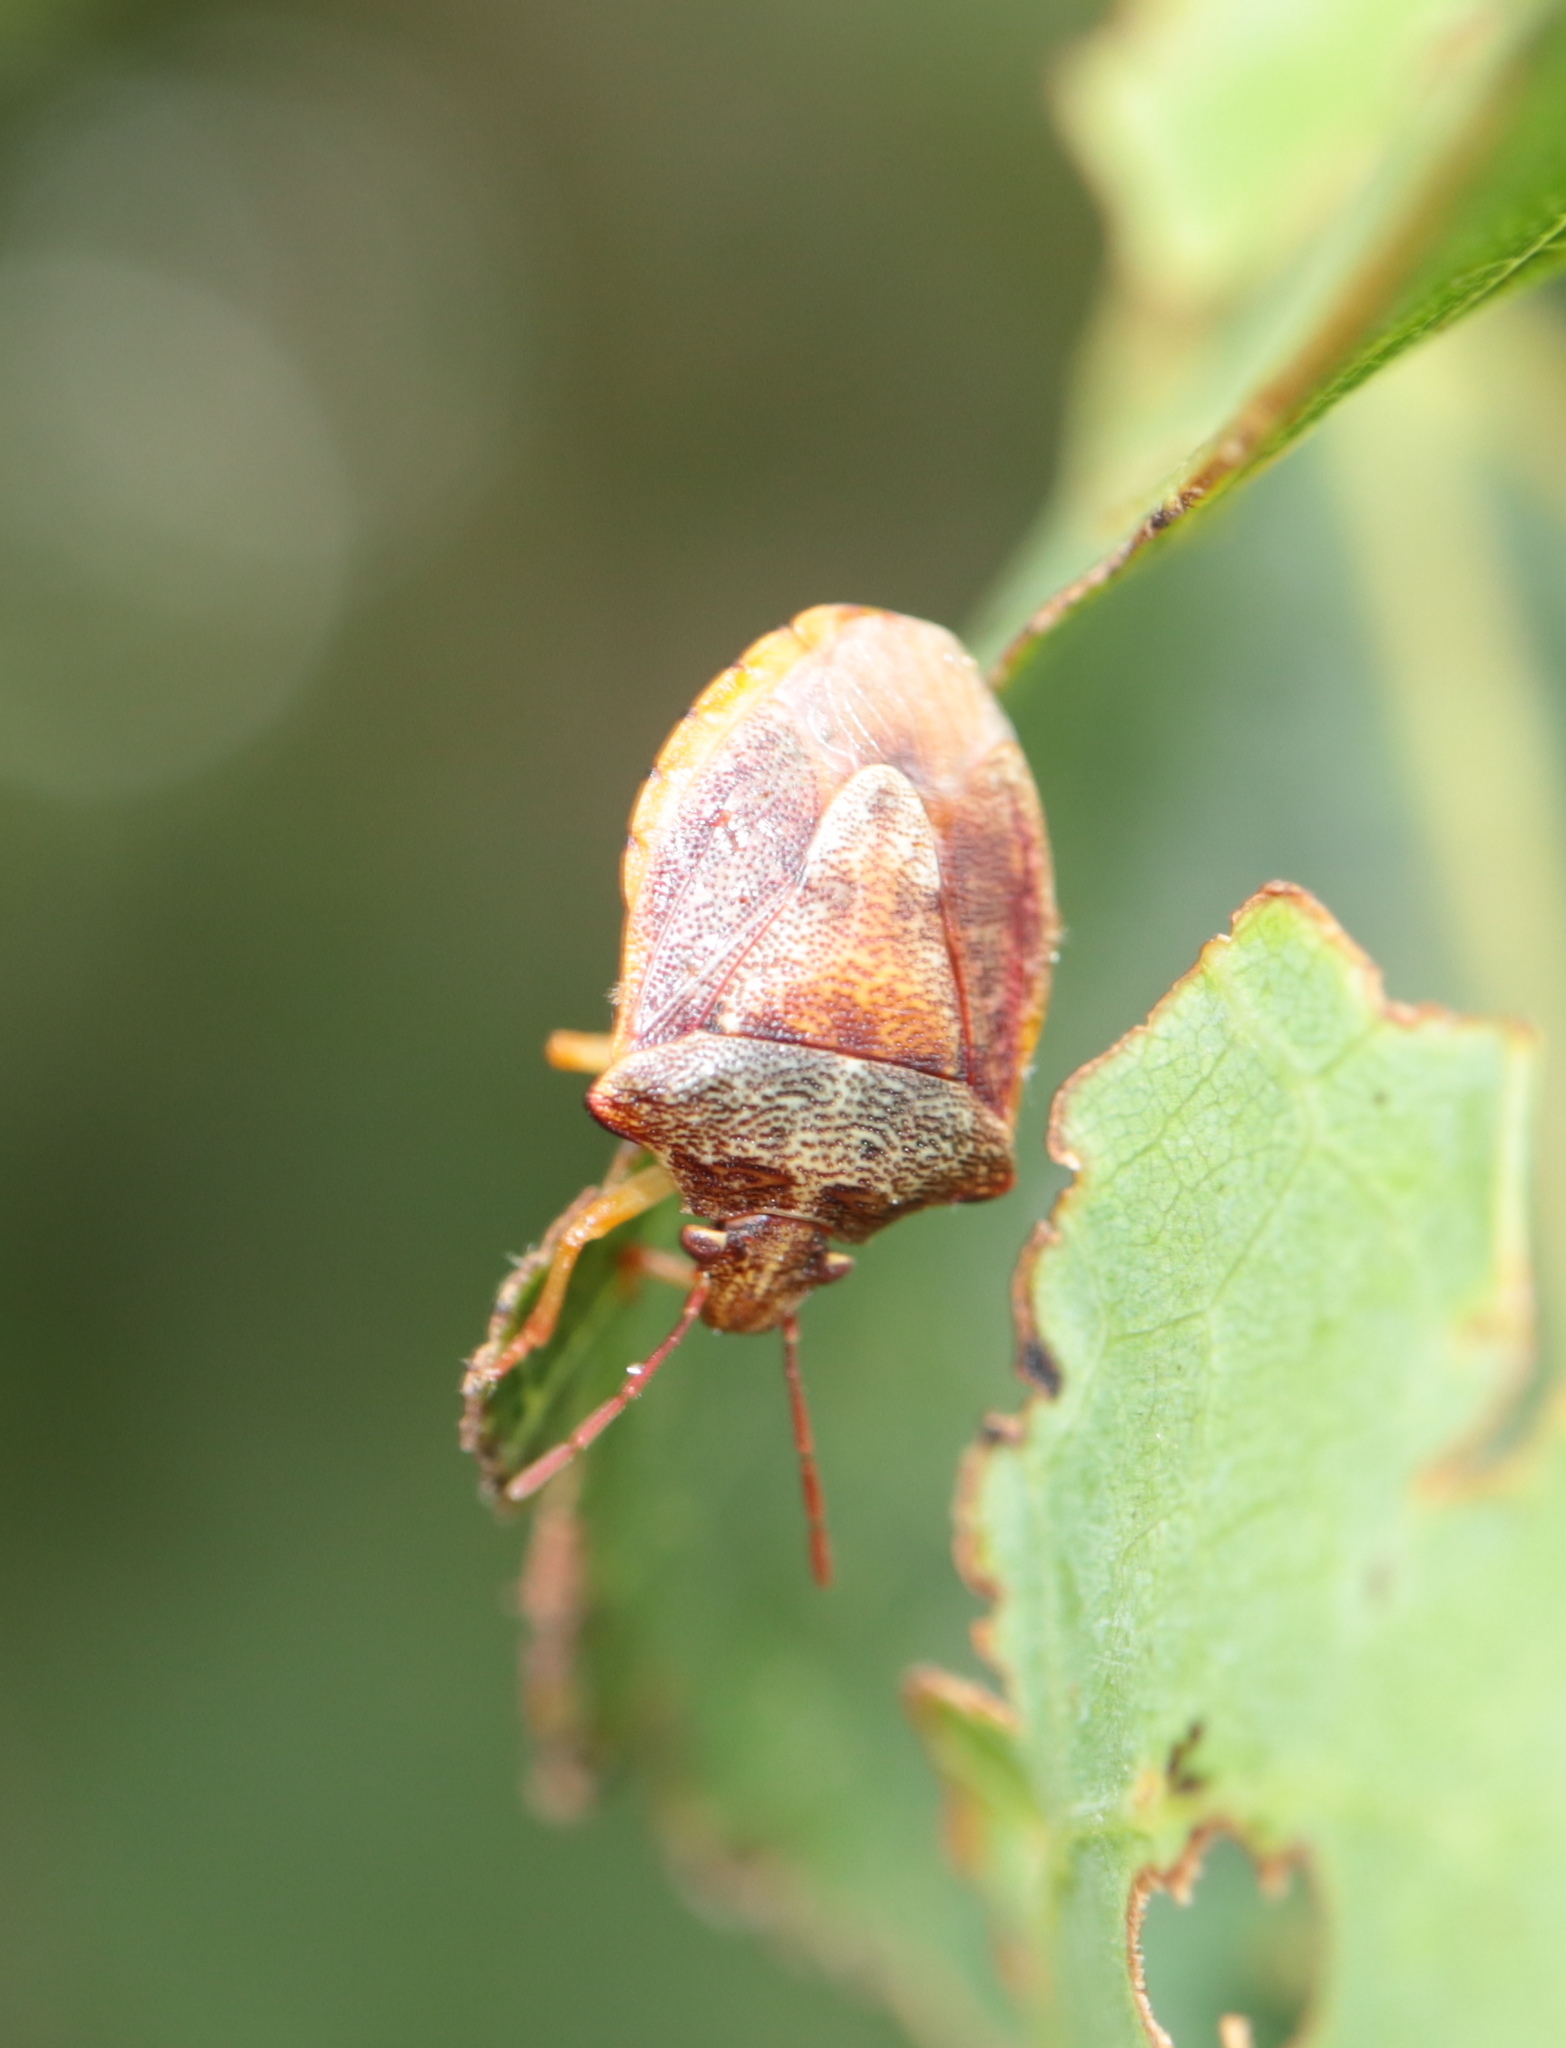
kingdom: Animalia
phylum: Arthropoda
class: Insecta
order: Hemiptera
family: Pentatomidae
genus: Dendrocoris
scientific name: Dendrocoris humeralis
